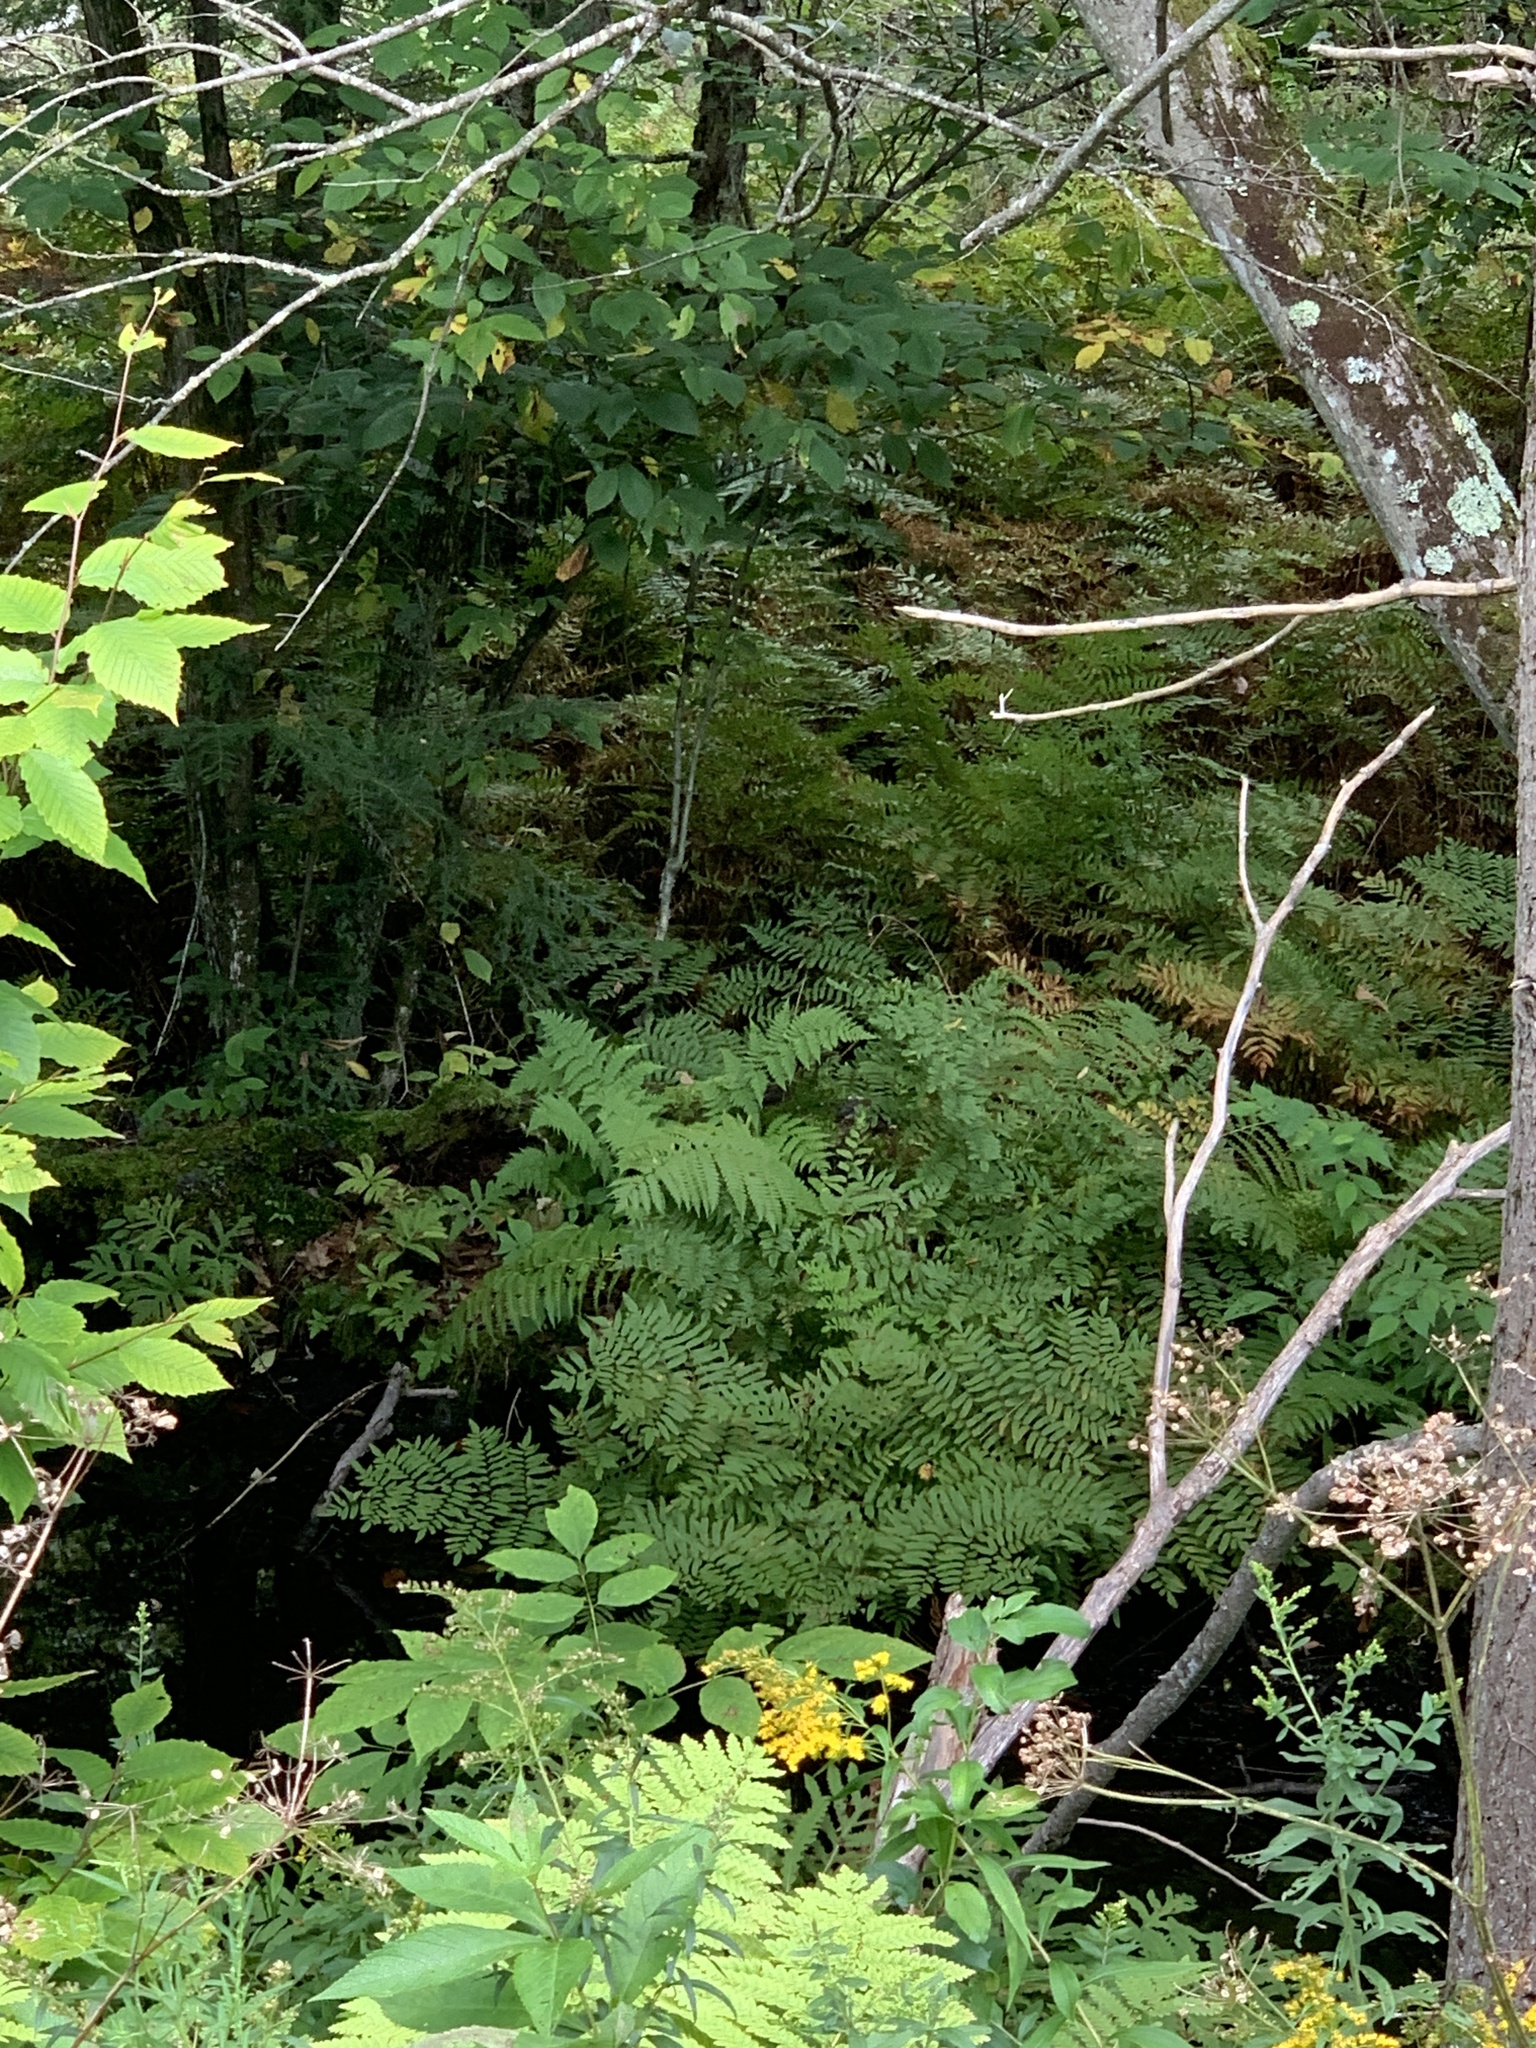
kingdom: Plantae
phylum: Tracheophyta
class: Polypodiopsida
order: Osmundales
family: Osmundaceae
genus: Osmunda
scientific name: Osmunda spectabilis
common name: American royal fern
